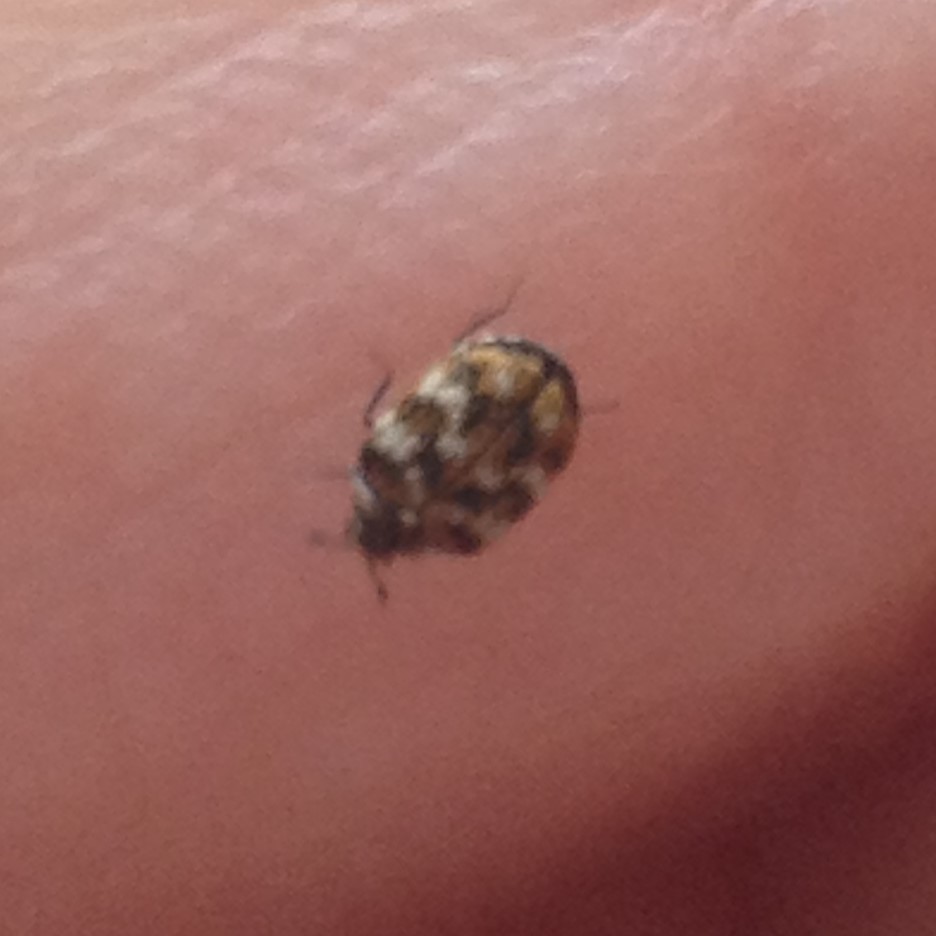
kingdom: Animalia
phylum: Arthropoda
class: Insecta
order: Coleoptera
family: Dermestidae
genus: Anthrenus
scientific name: Anthrenus verbasci
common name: Varied carpet beetle
